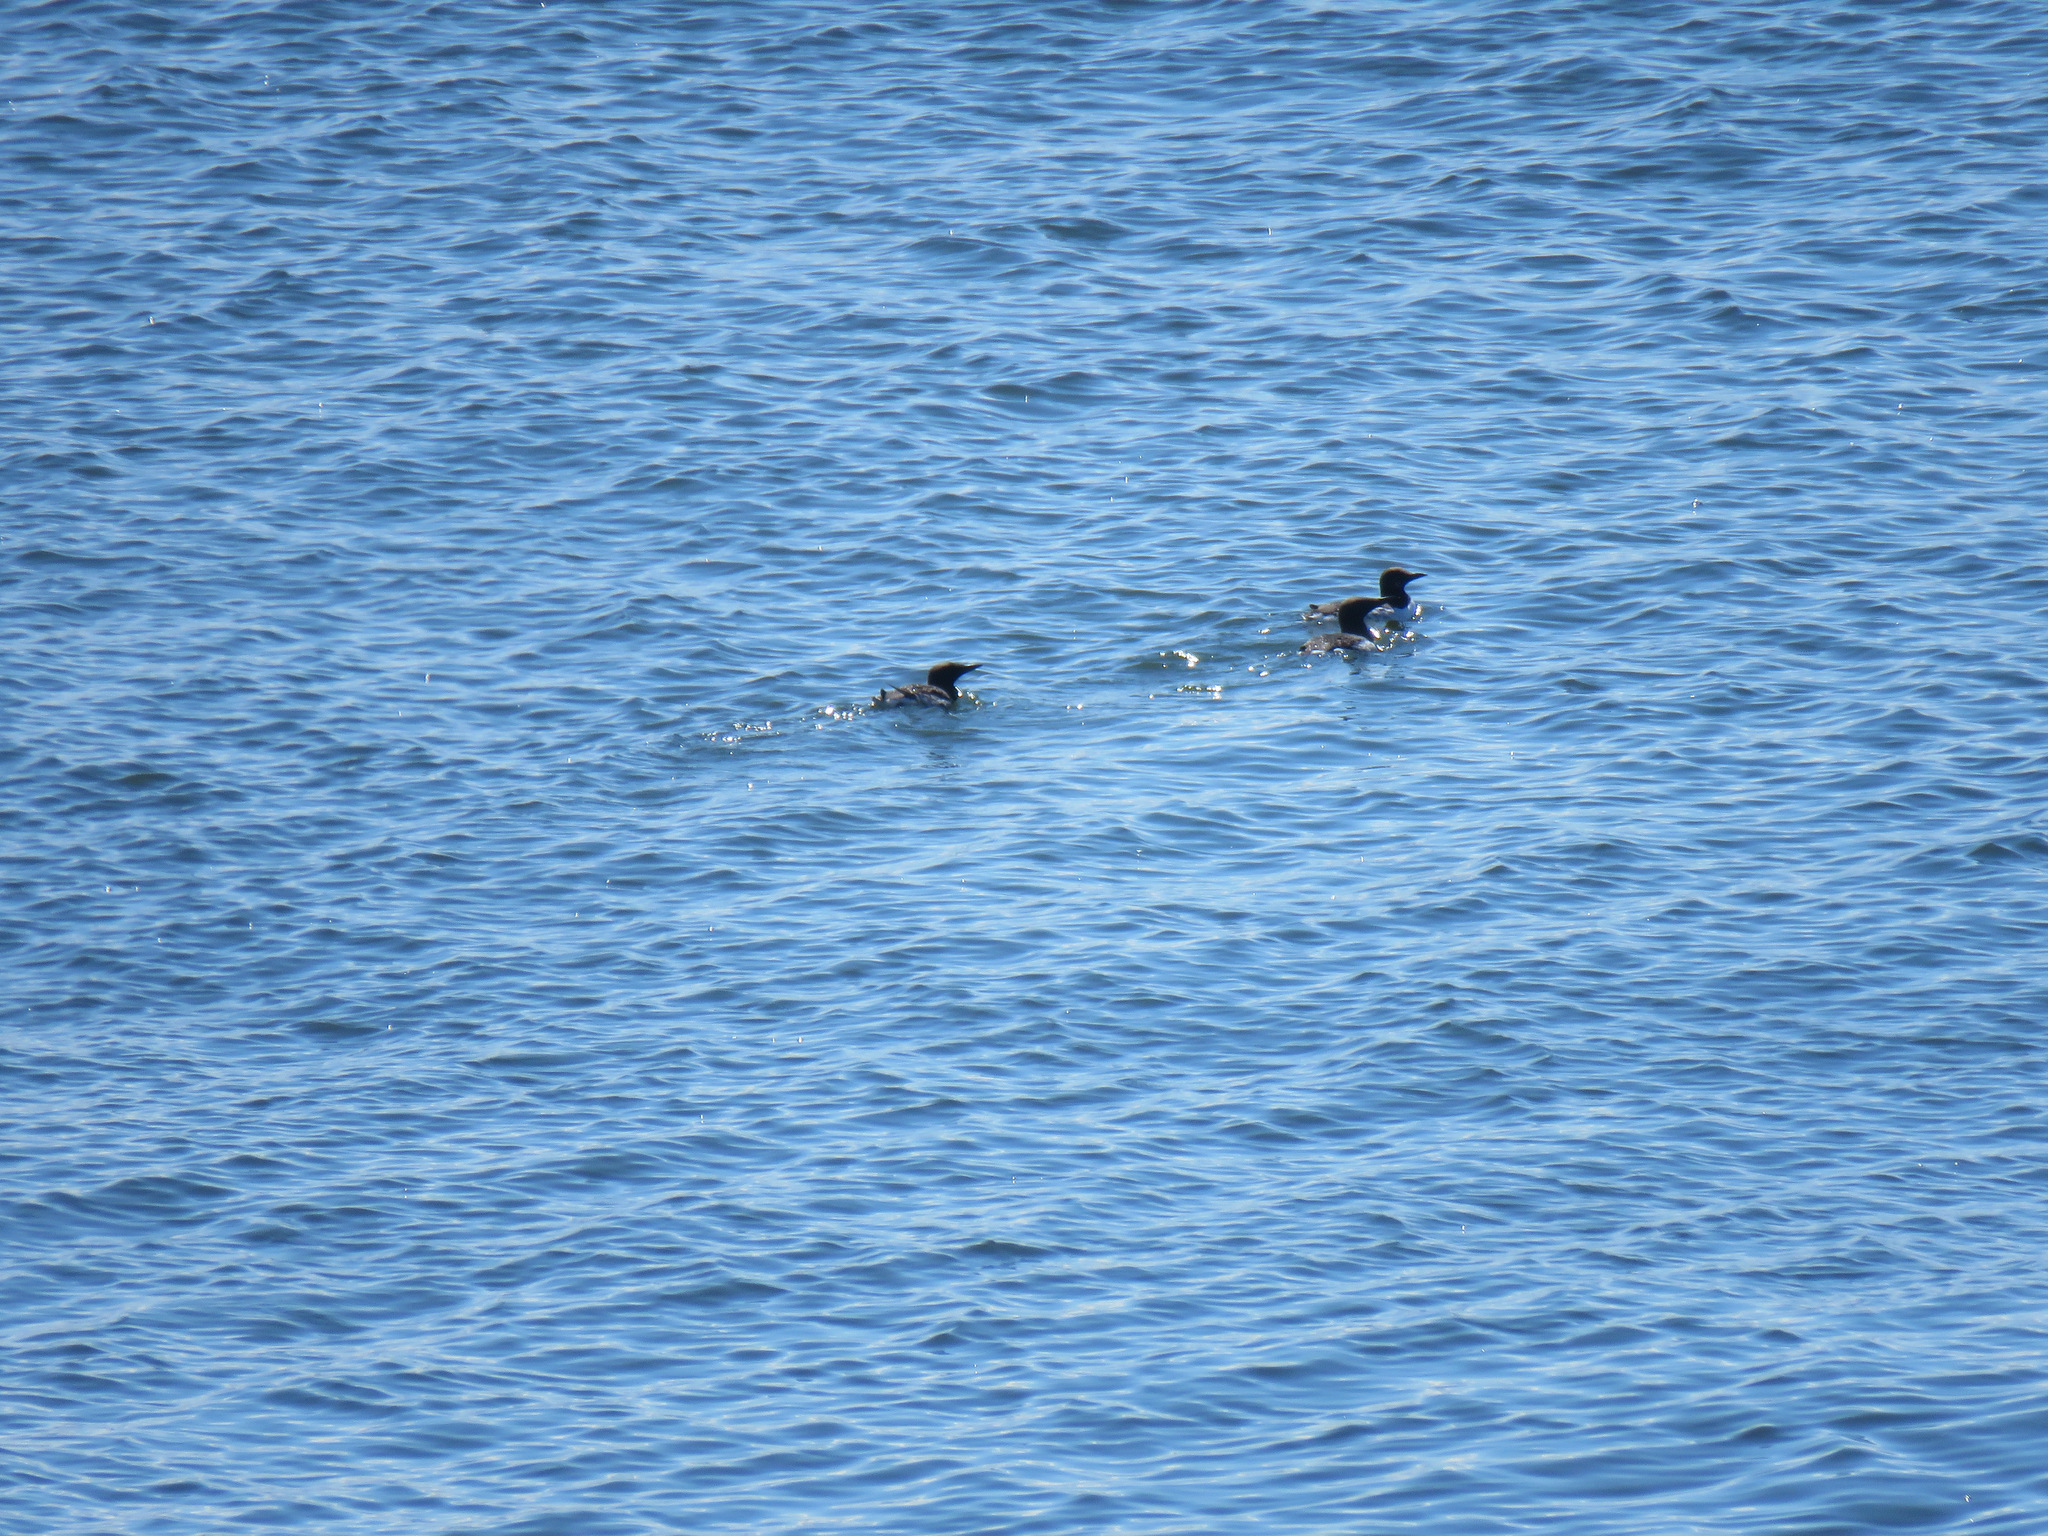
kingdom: Animalia
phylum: Chordata
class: Aves
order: Charadriiformes
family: Alcidae
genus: Uria
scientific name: Uria aalge
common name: Common murre
